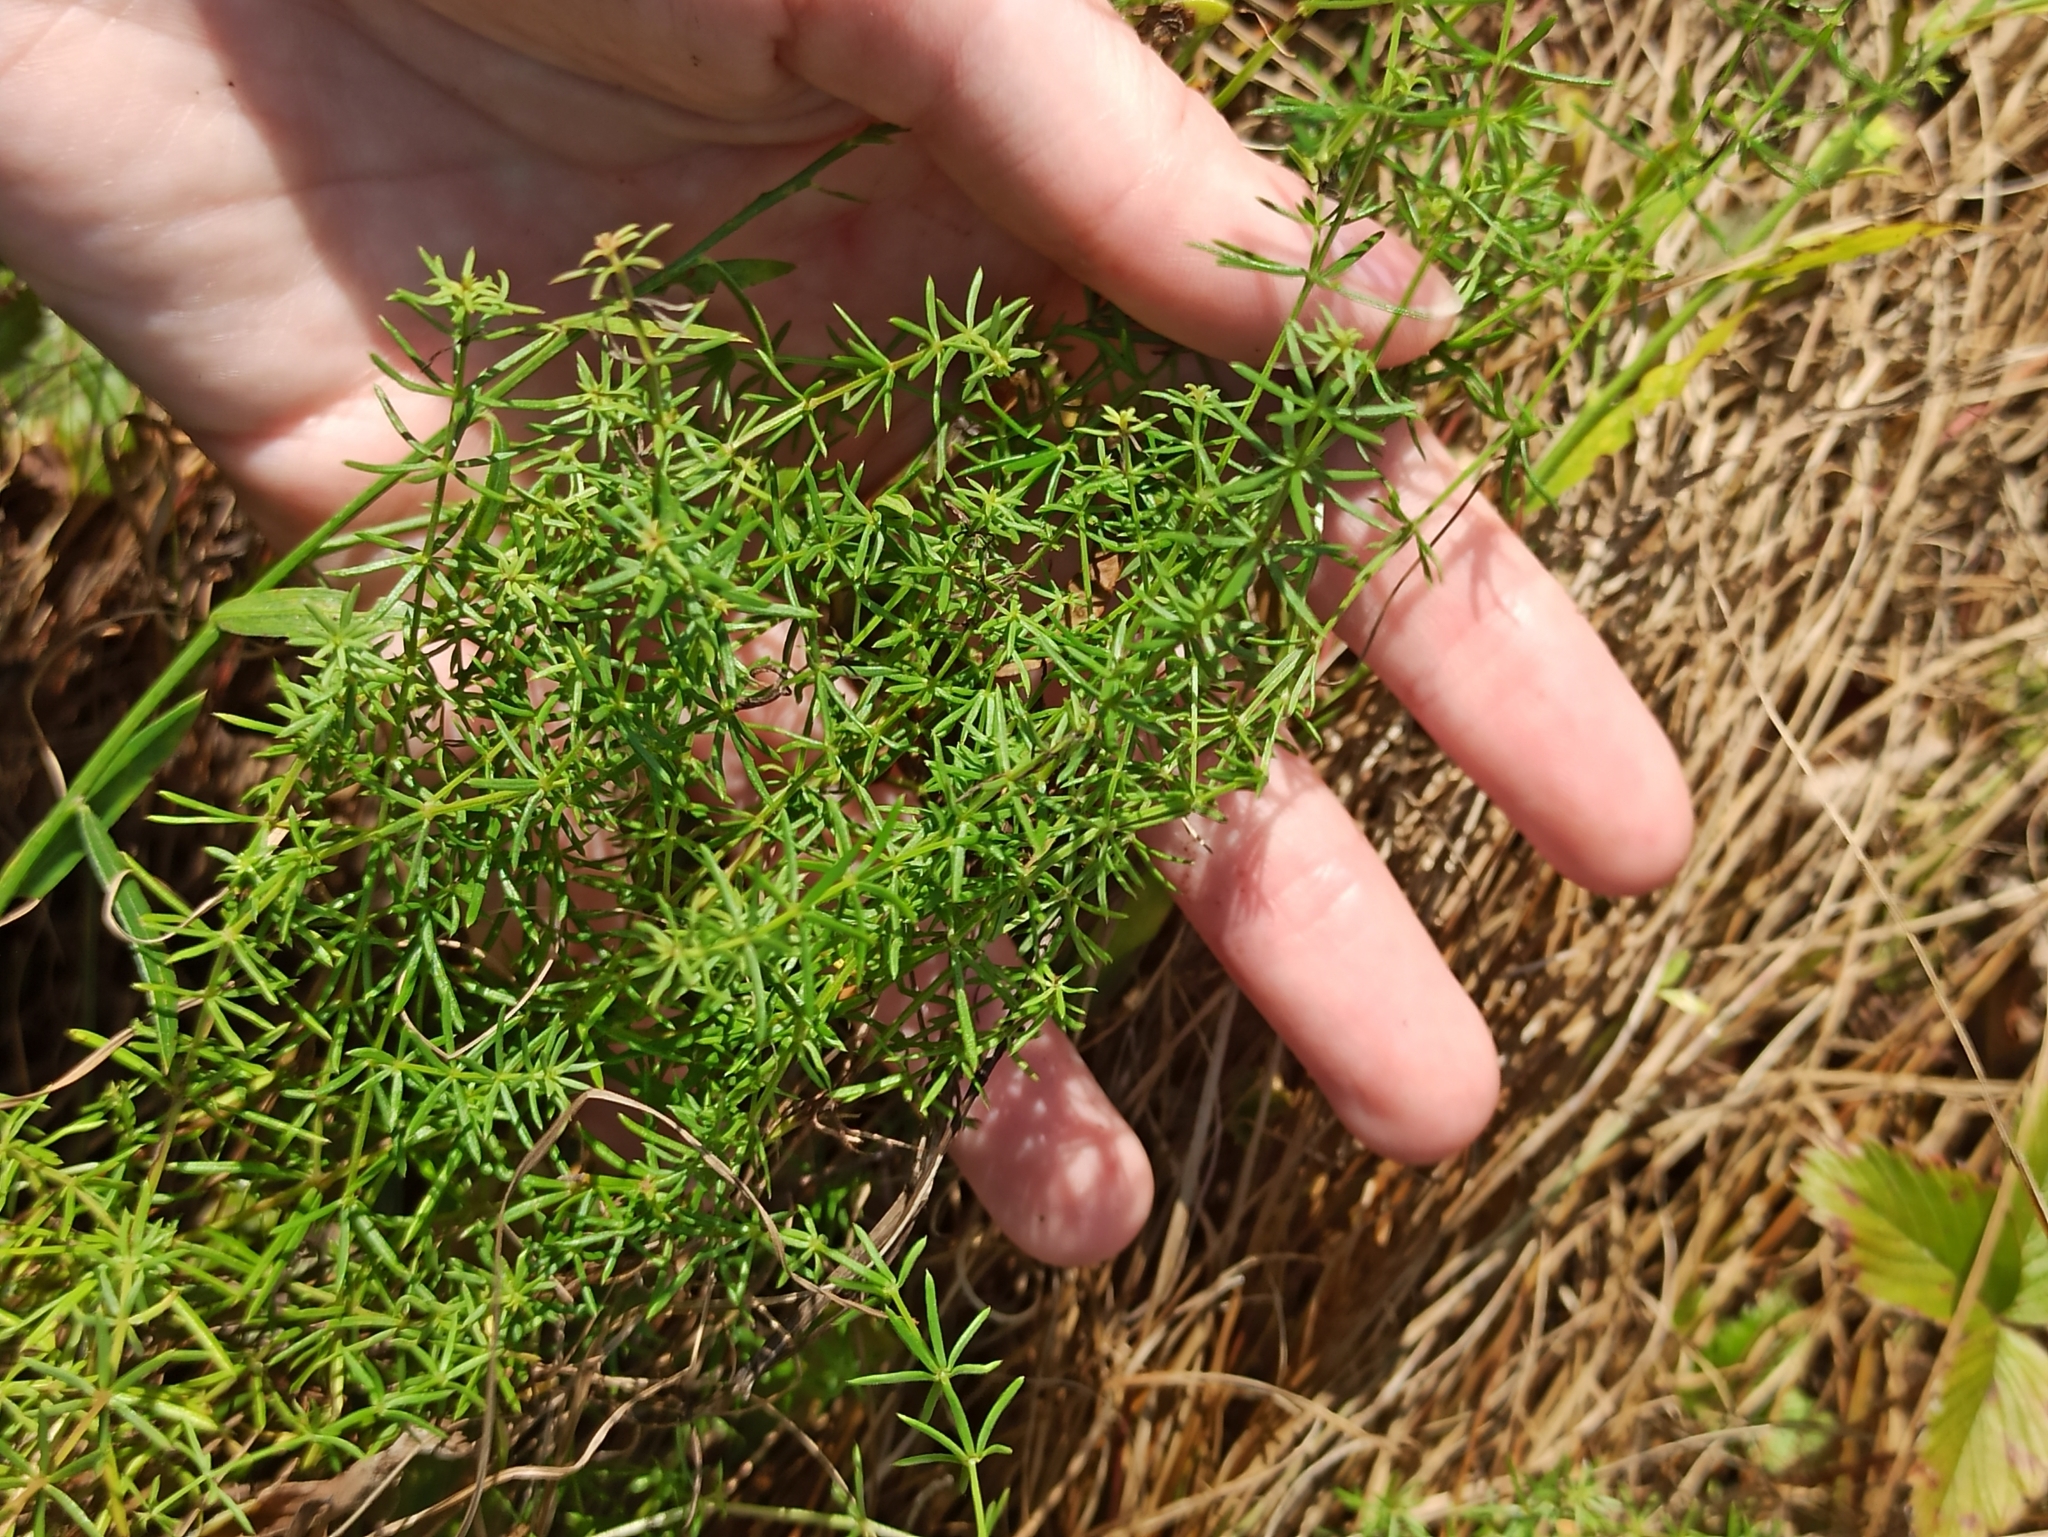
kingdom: Plantae
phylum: Tracheophyta
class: Magnoliopsida
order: Gentianales
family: Rubiaceae
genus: Galium
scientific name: Galium verum
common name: Lady's bedstraw
